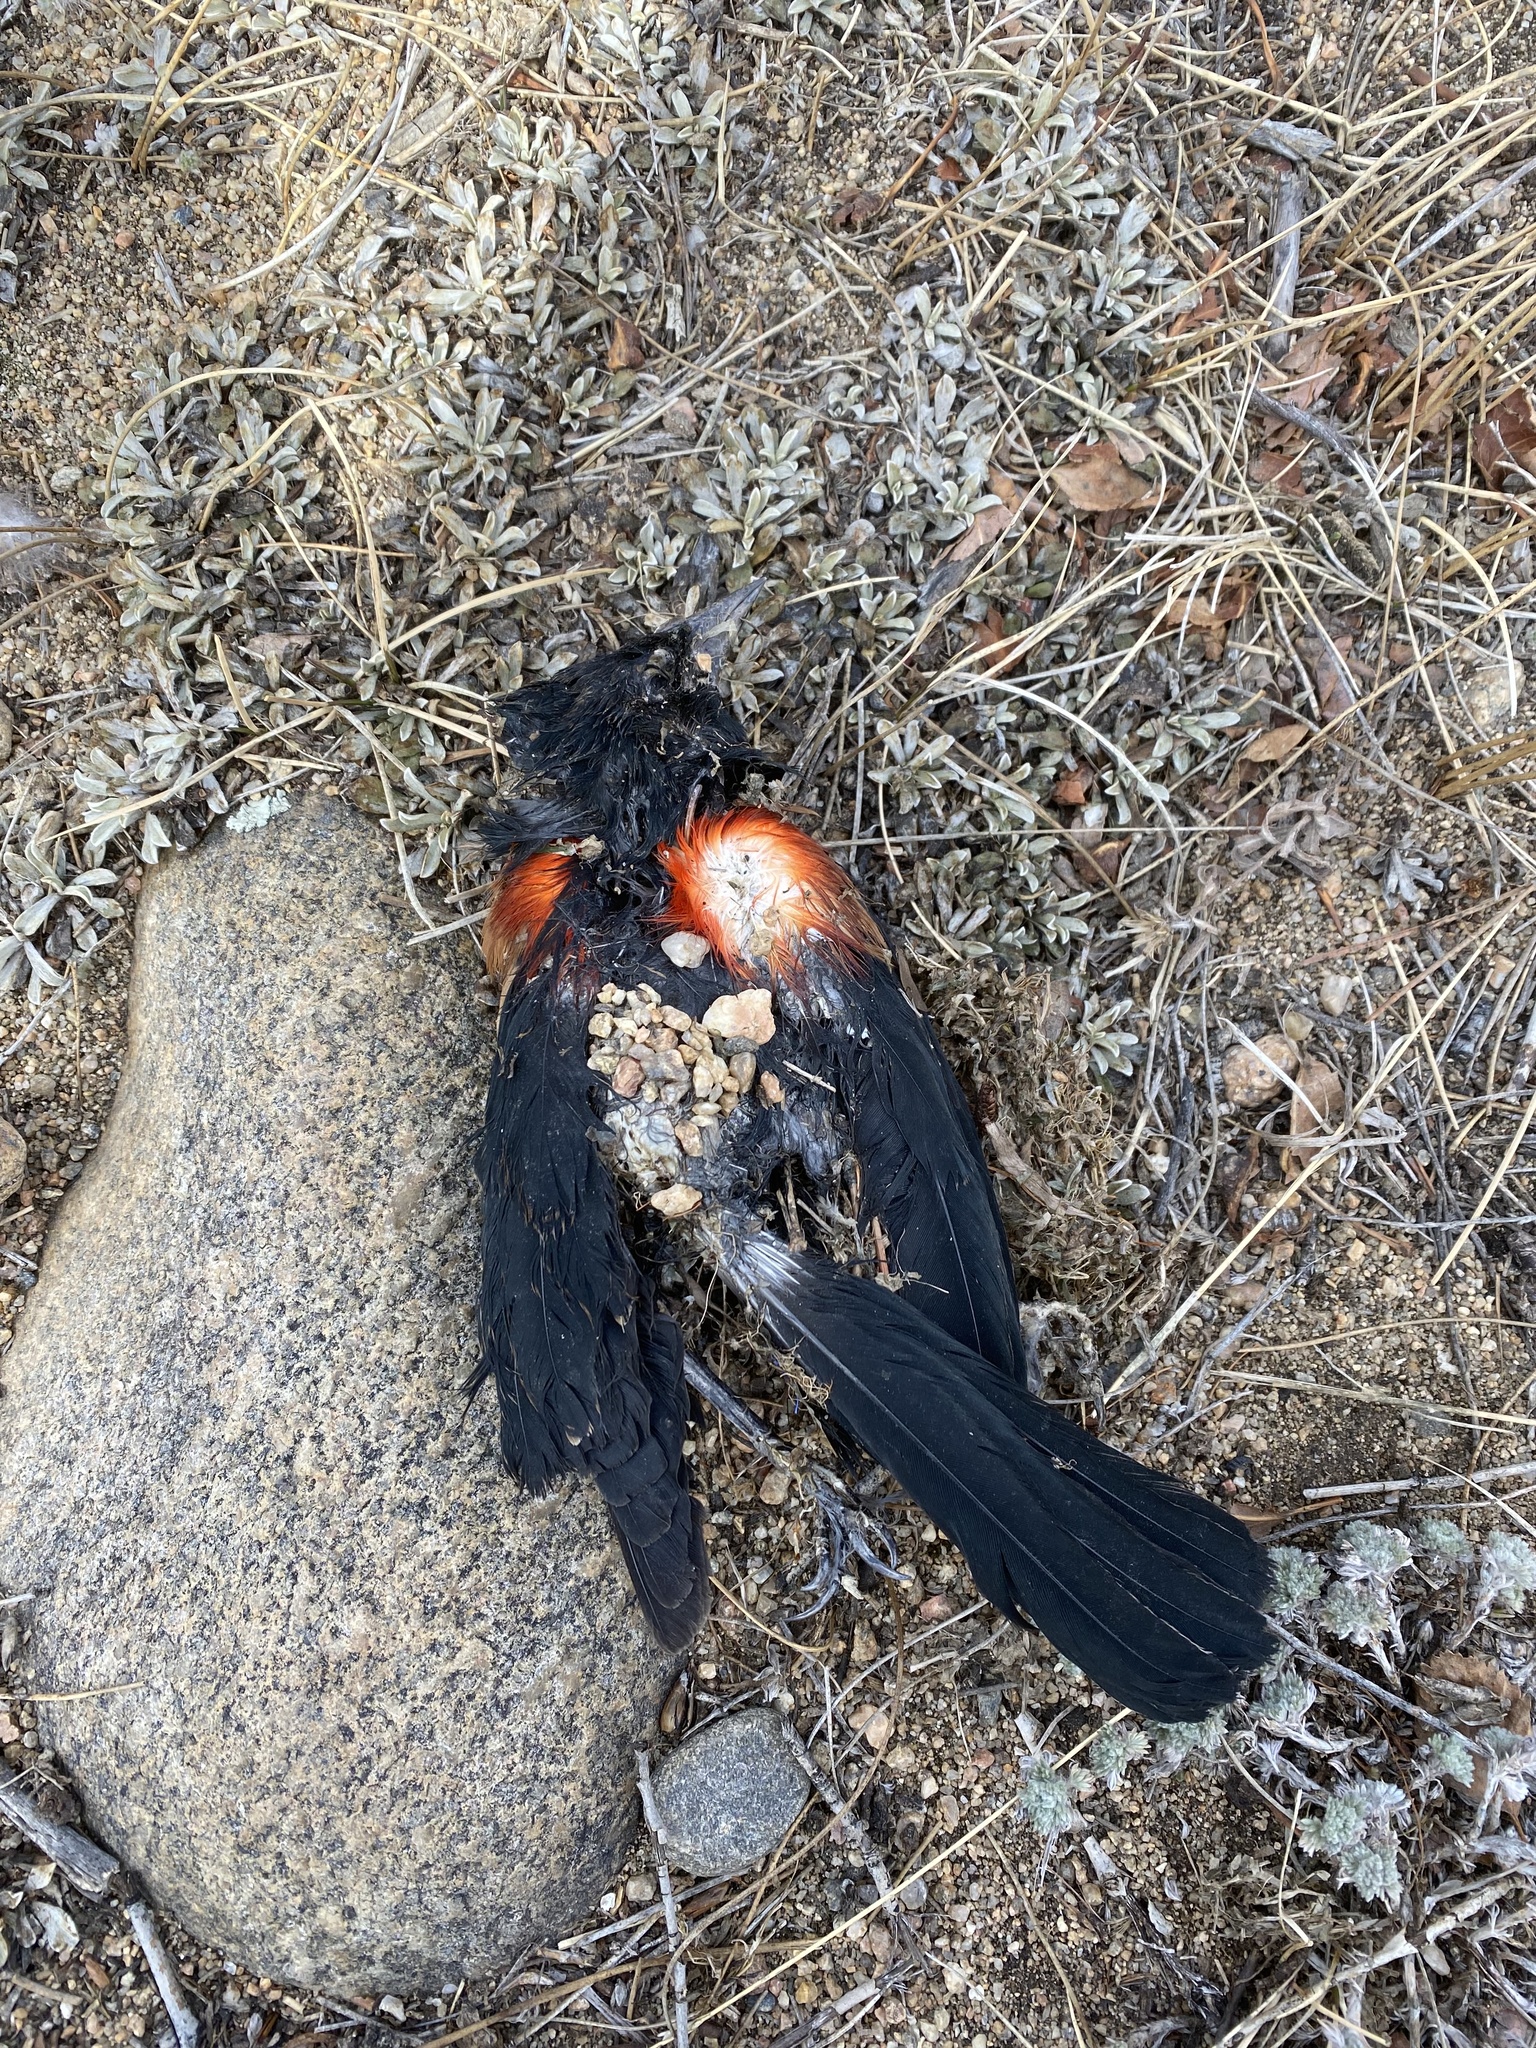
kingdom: Animalia
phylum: Chordata
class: Aves
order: Passeriformes
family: Icteridae
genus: Agelaius
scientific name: Agelaius phoeniceus
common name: Red-winged blackbird
